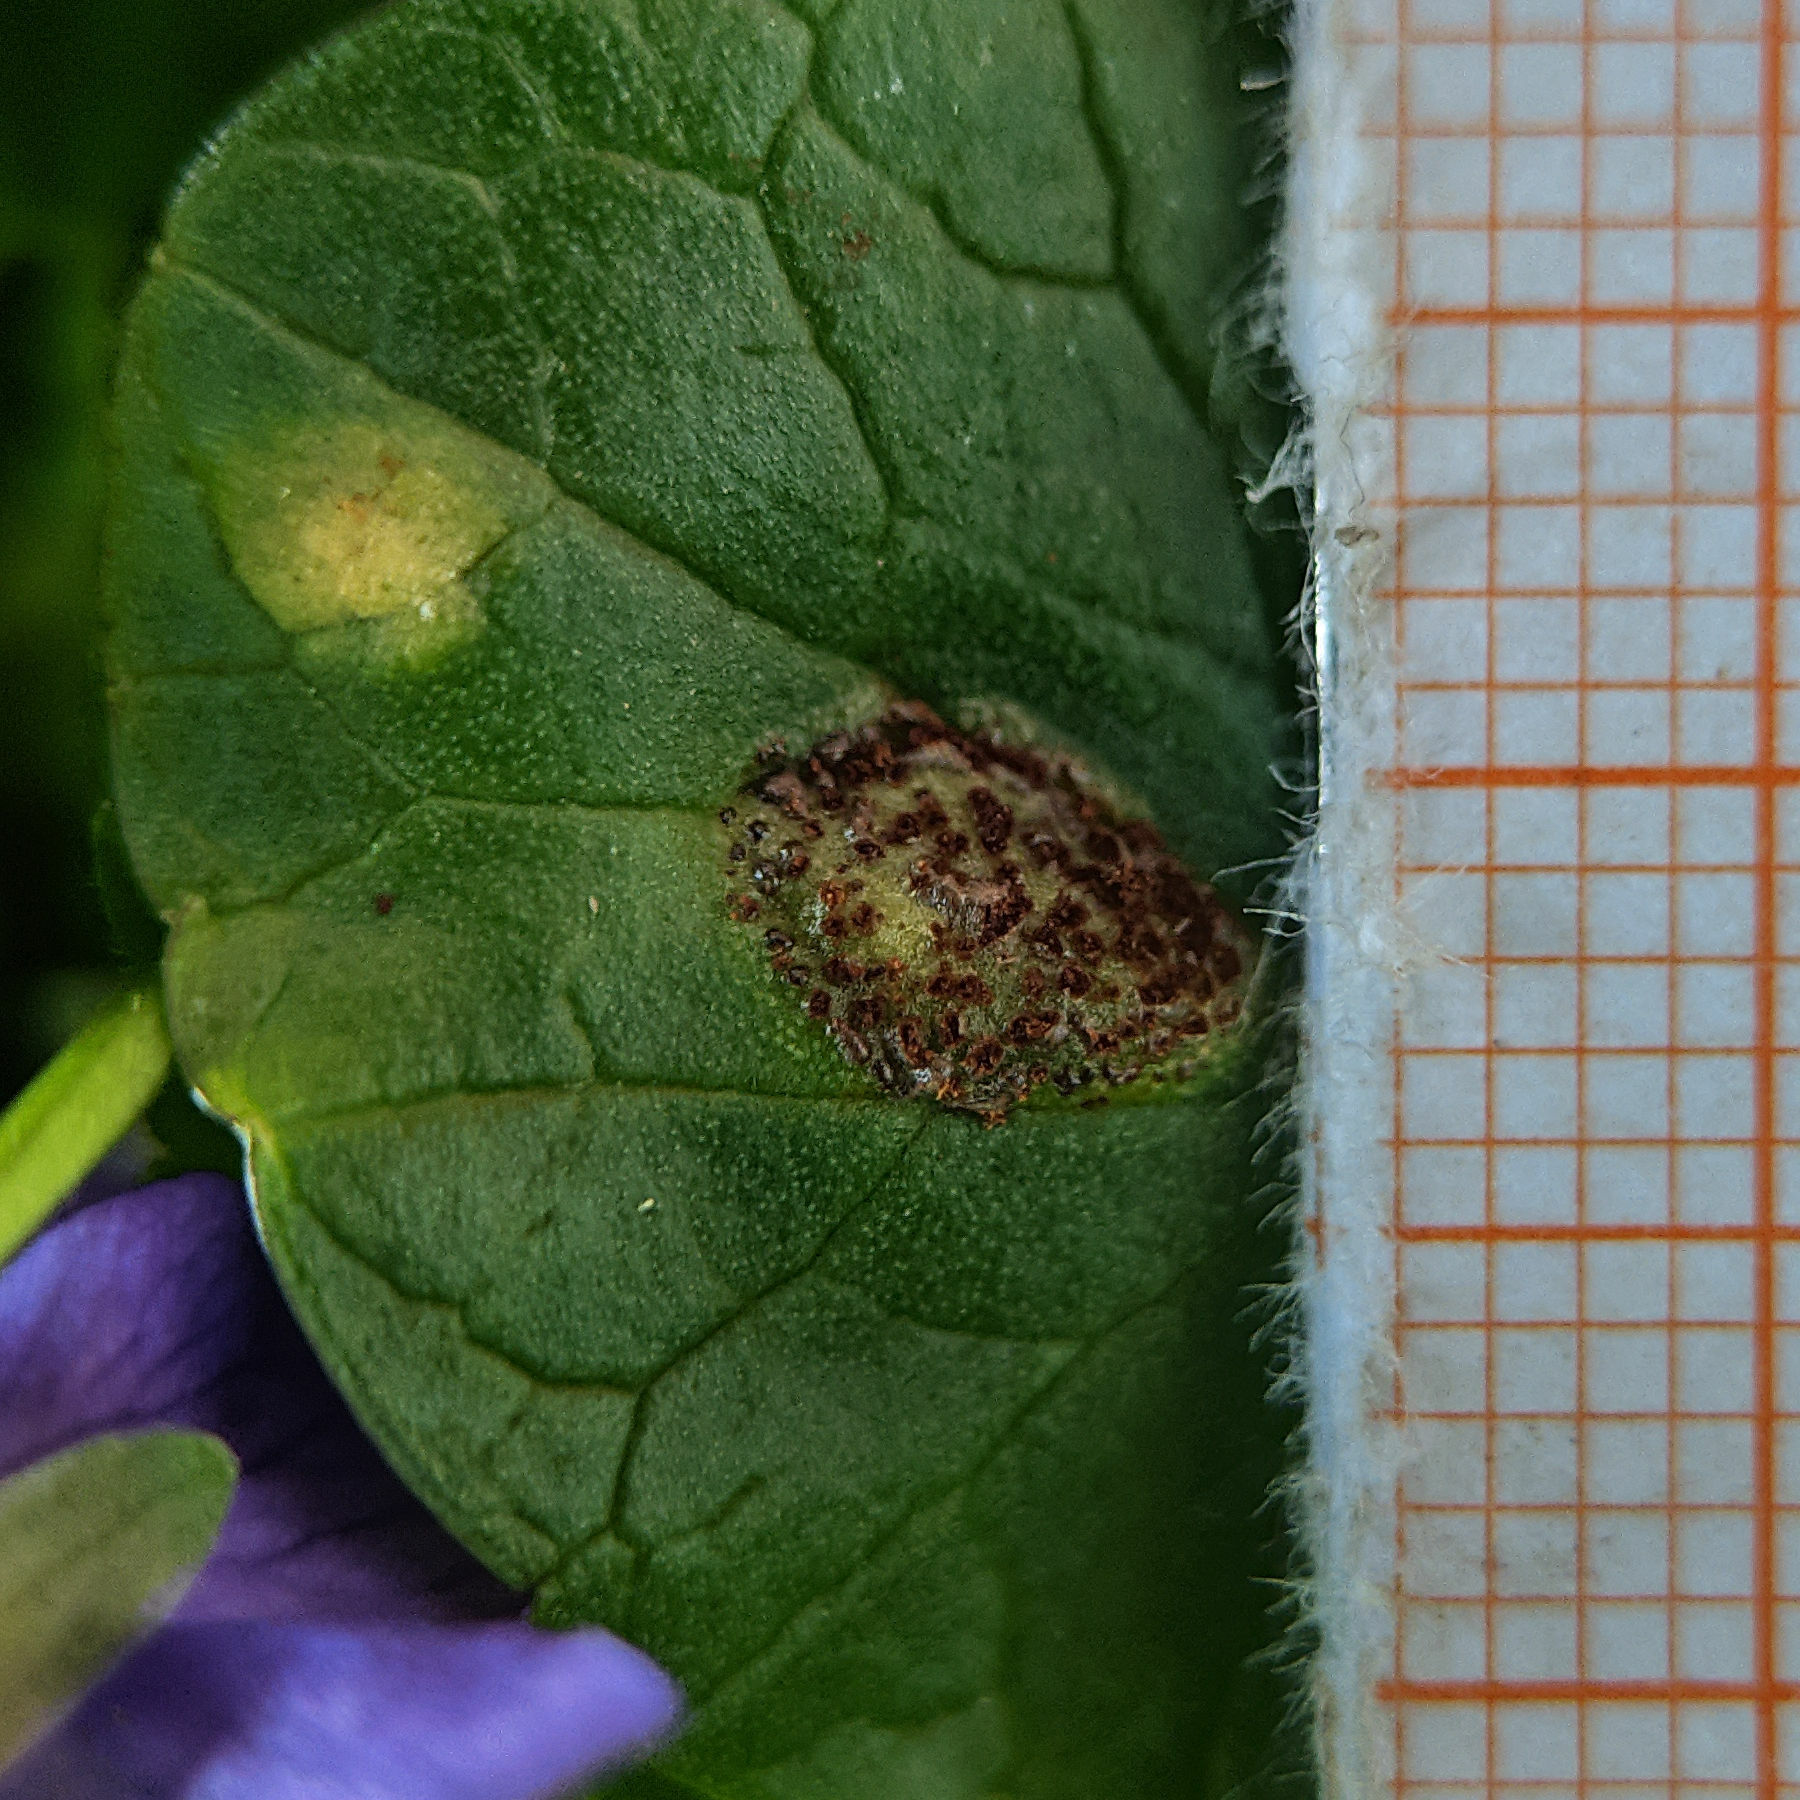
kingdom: Fungi
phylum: Basidiomycota
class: Pucciniomycetes
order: Pucciniales
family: Pucciniaceae
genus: Uromyces
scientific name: Uromyces ficariae
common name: Bitter chocolate rust
